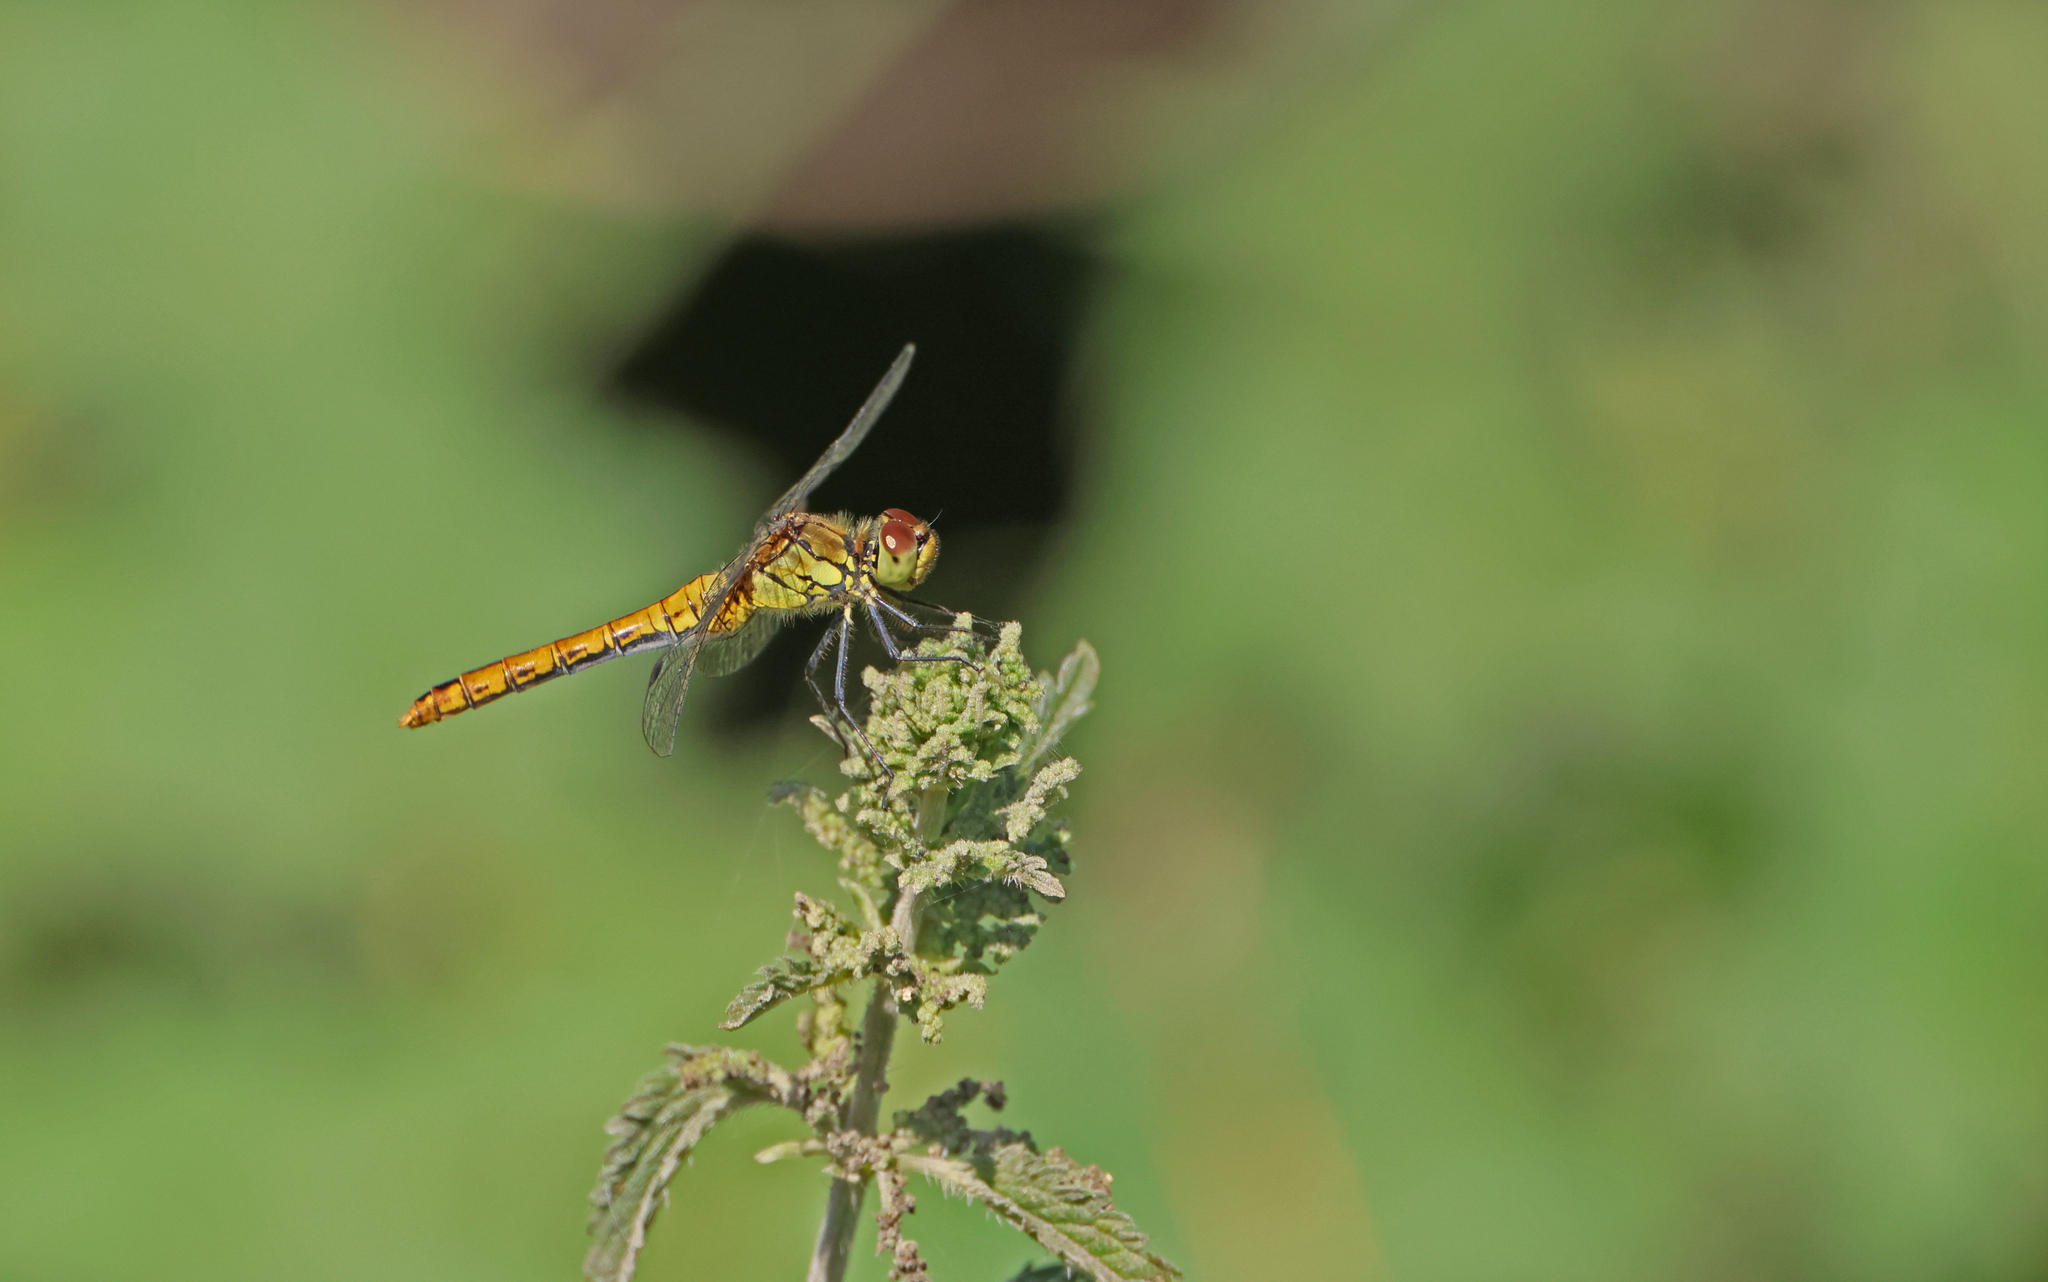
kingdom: Animalia
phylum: Arthropoda
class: Insecta
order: Odonata
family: Libellulidae
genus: Sympetrum
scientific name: Sympetrum sanguineum
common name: Ruddy darter
